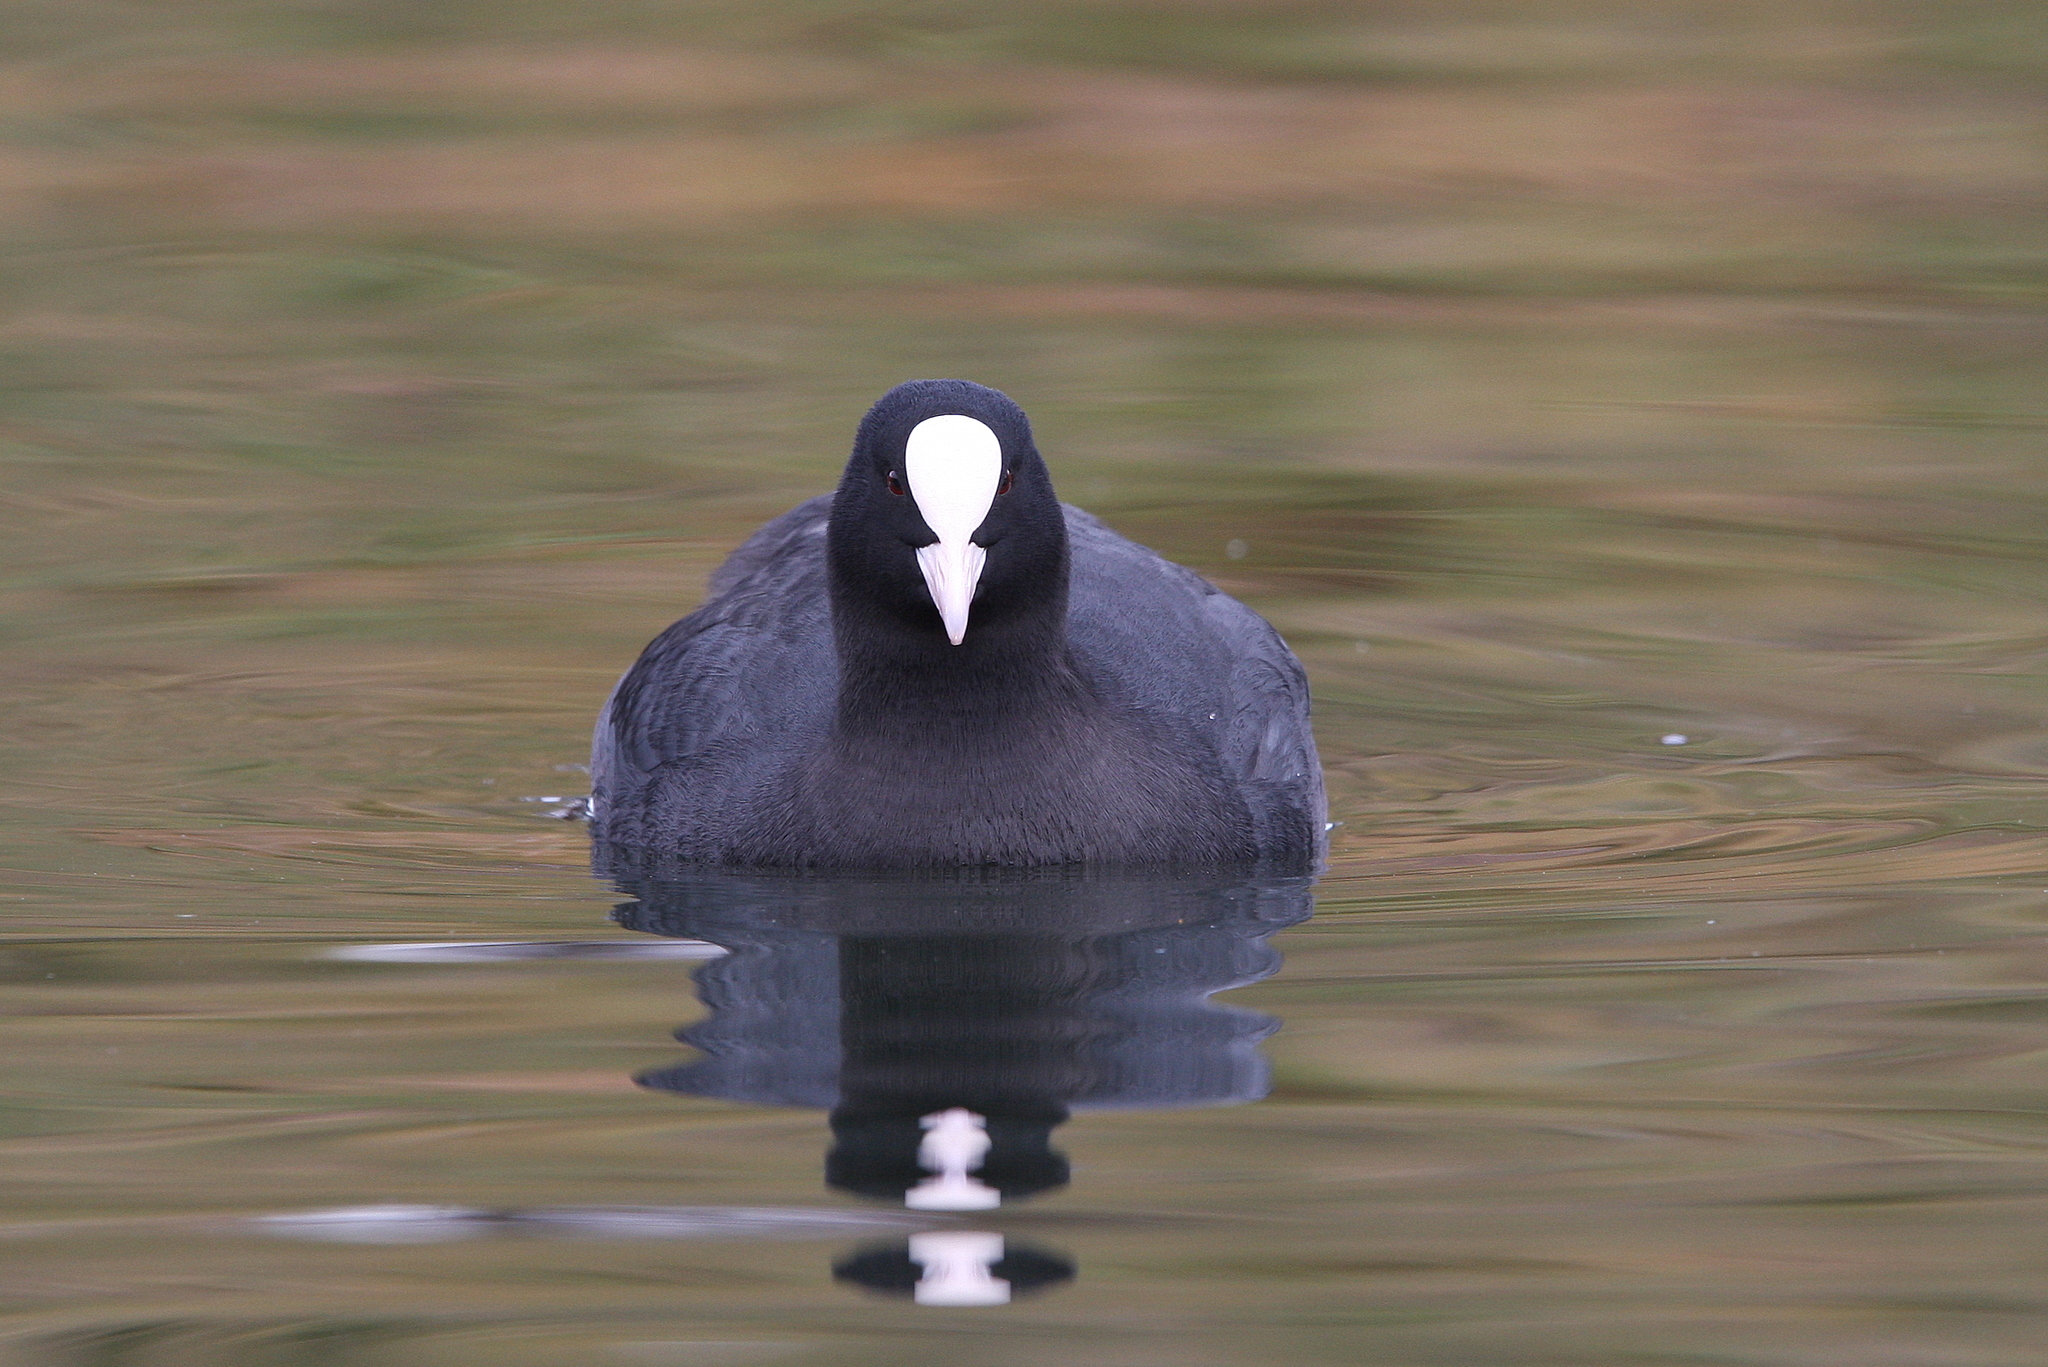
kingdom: Animalia
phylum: Chordata
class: Aves
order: Gruiformes
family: Rallidae
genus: Fulica
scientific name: Fulica atra
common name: Eurasian coot
